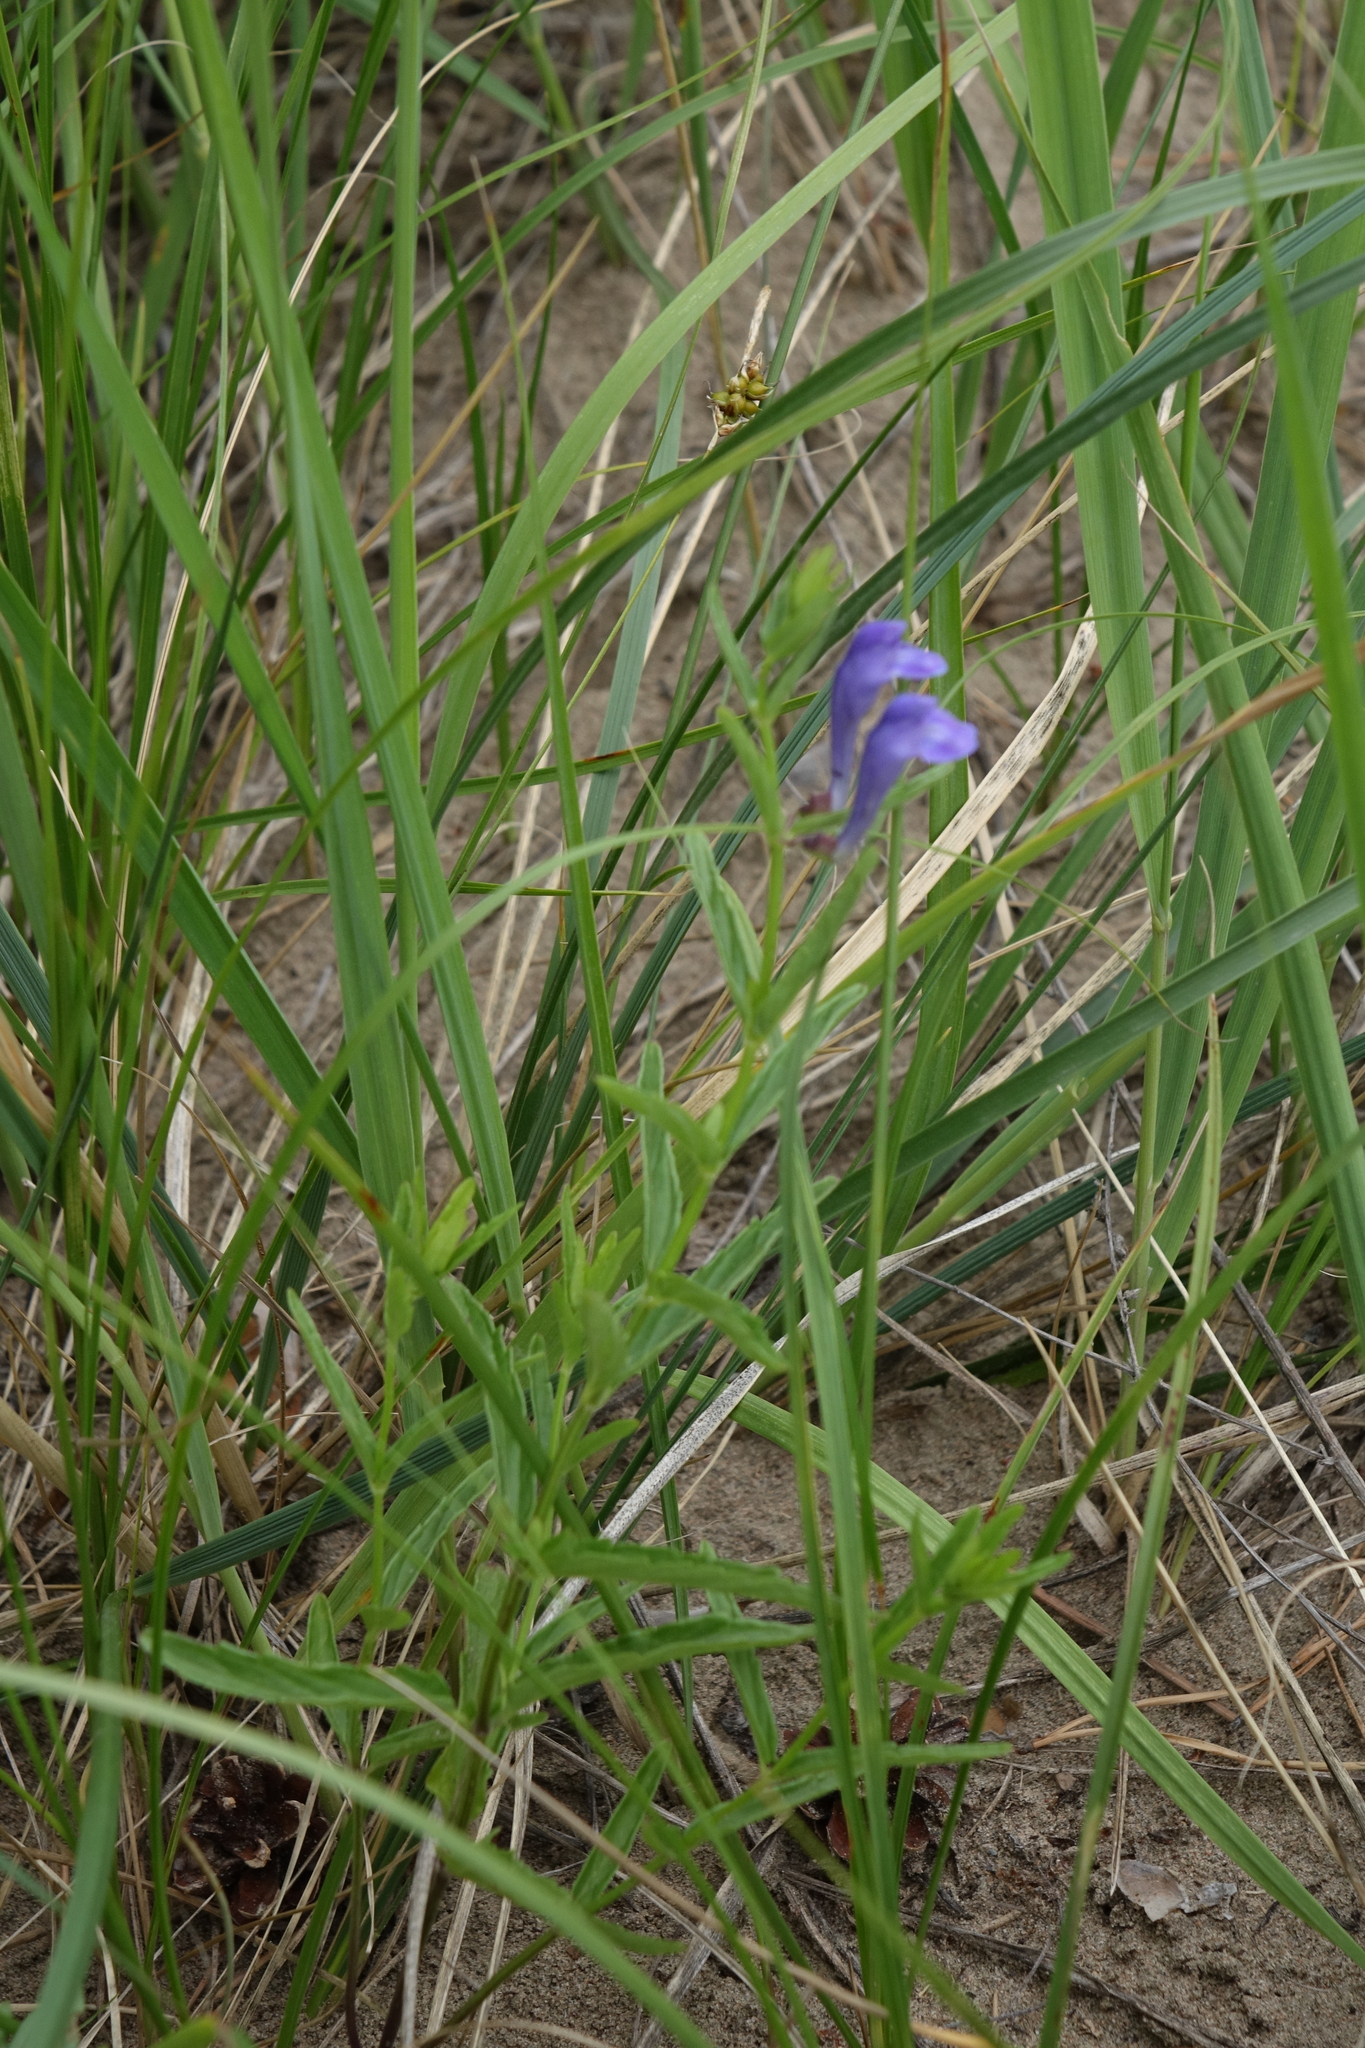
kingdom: Plantae
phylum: Tracheophyta
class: Magnoliopsida
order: Lamiales
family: Lamiaceae
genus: Scutellaria
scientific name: Scutellaria scordiifolia
